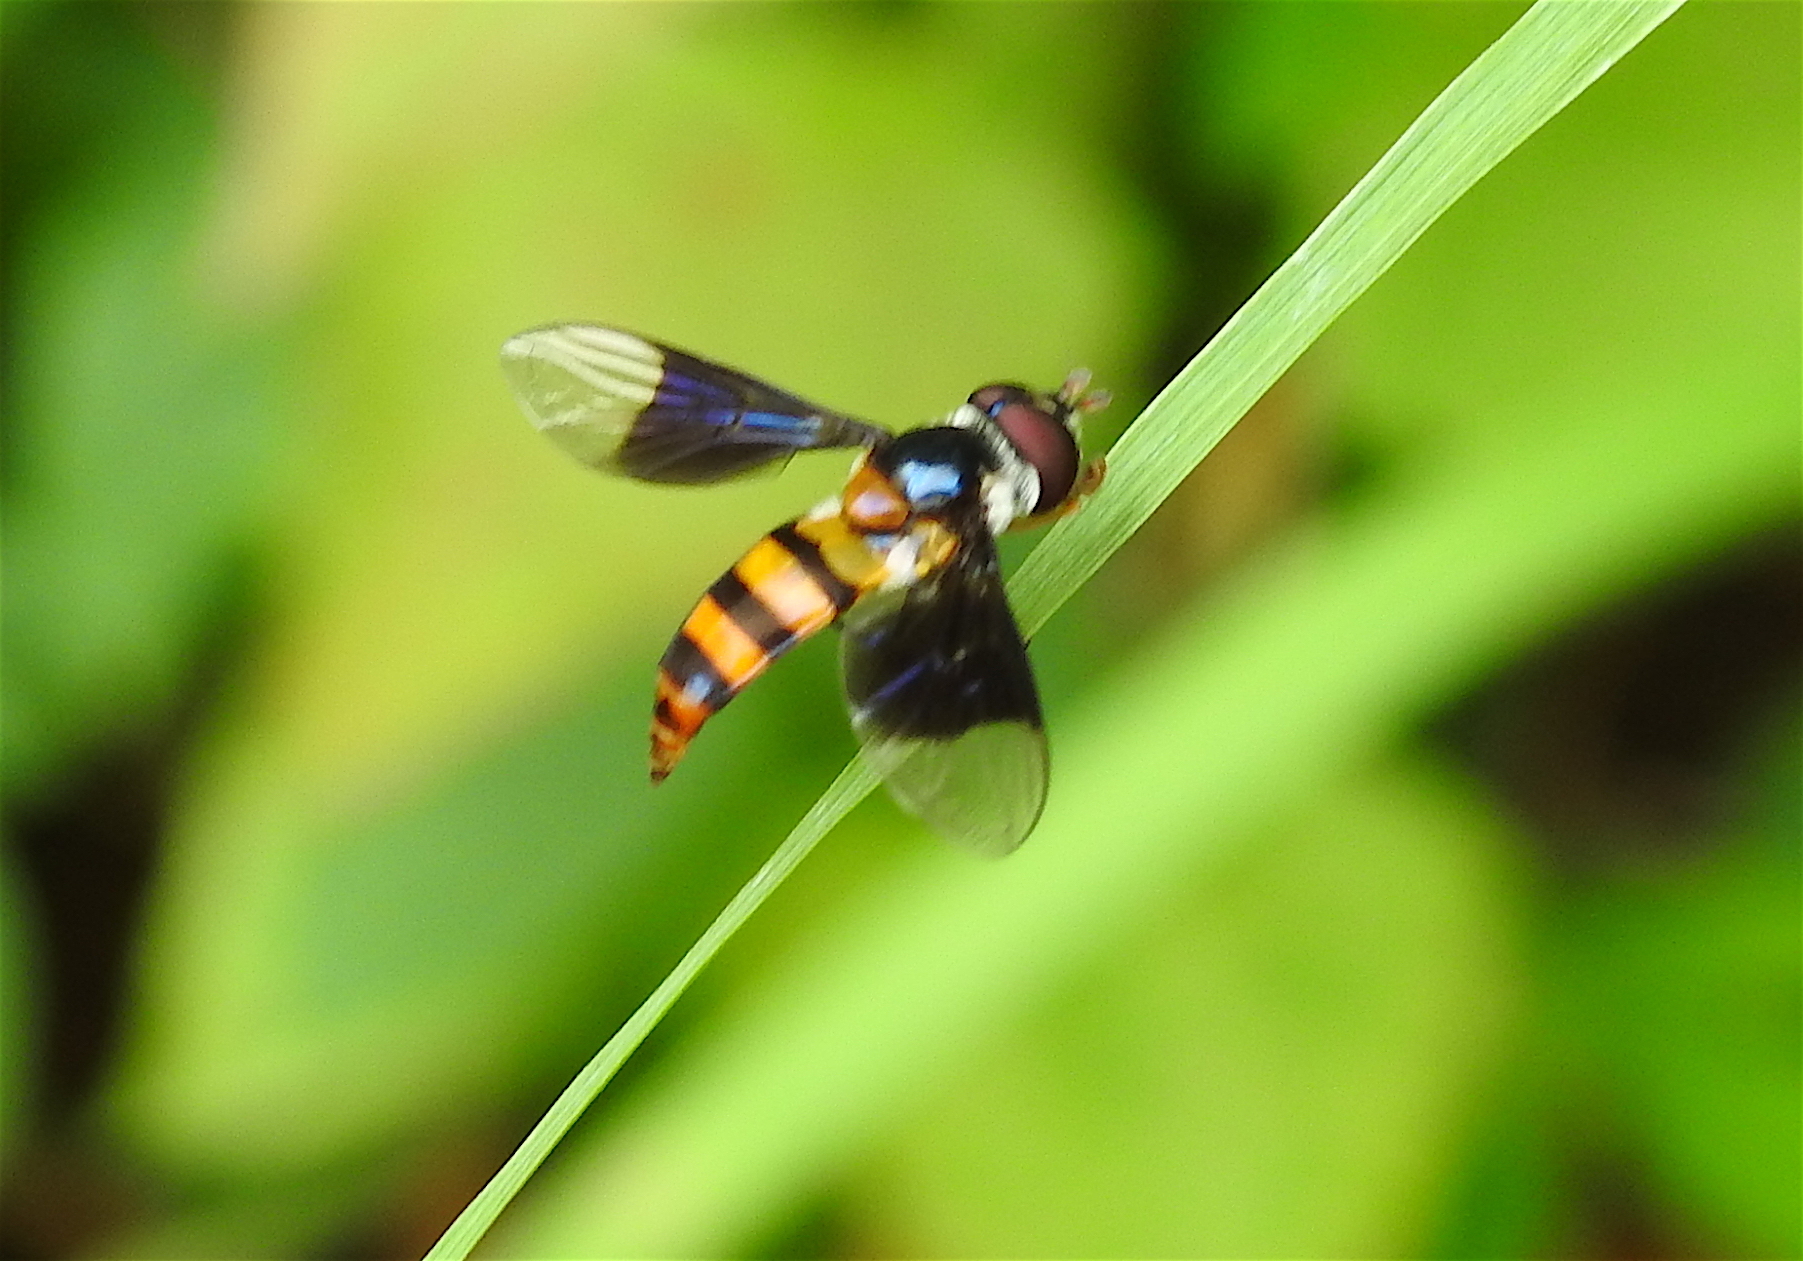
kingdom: Animalia
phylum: Arthropoda
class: Insecta
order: Diptera
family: Syrphidae
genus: Dideopsis
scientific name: Dideopsis aegrota
